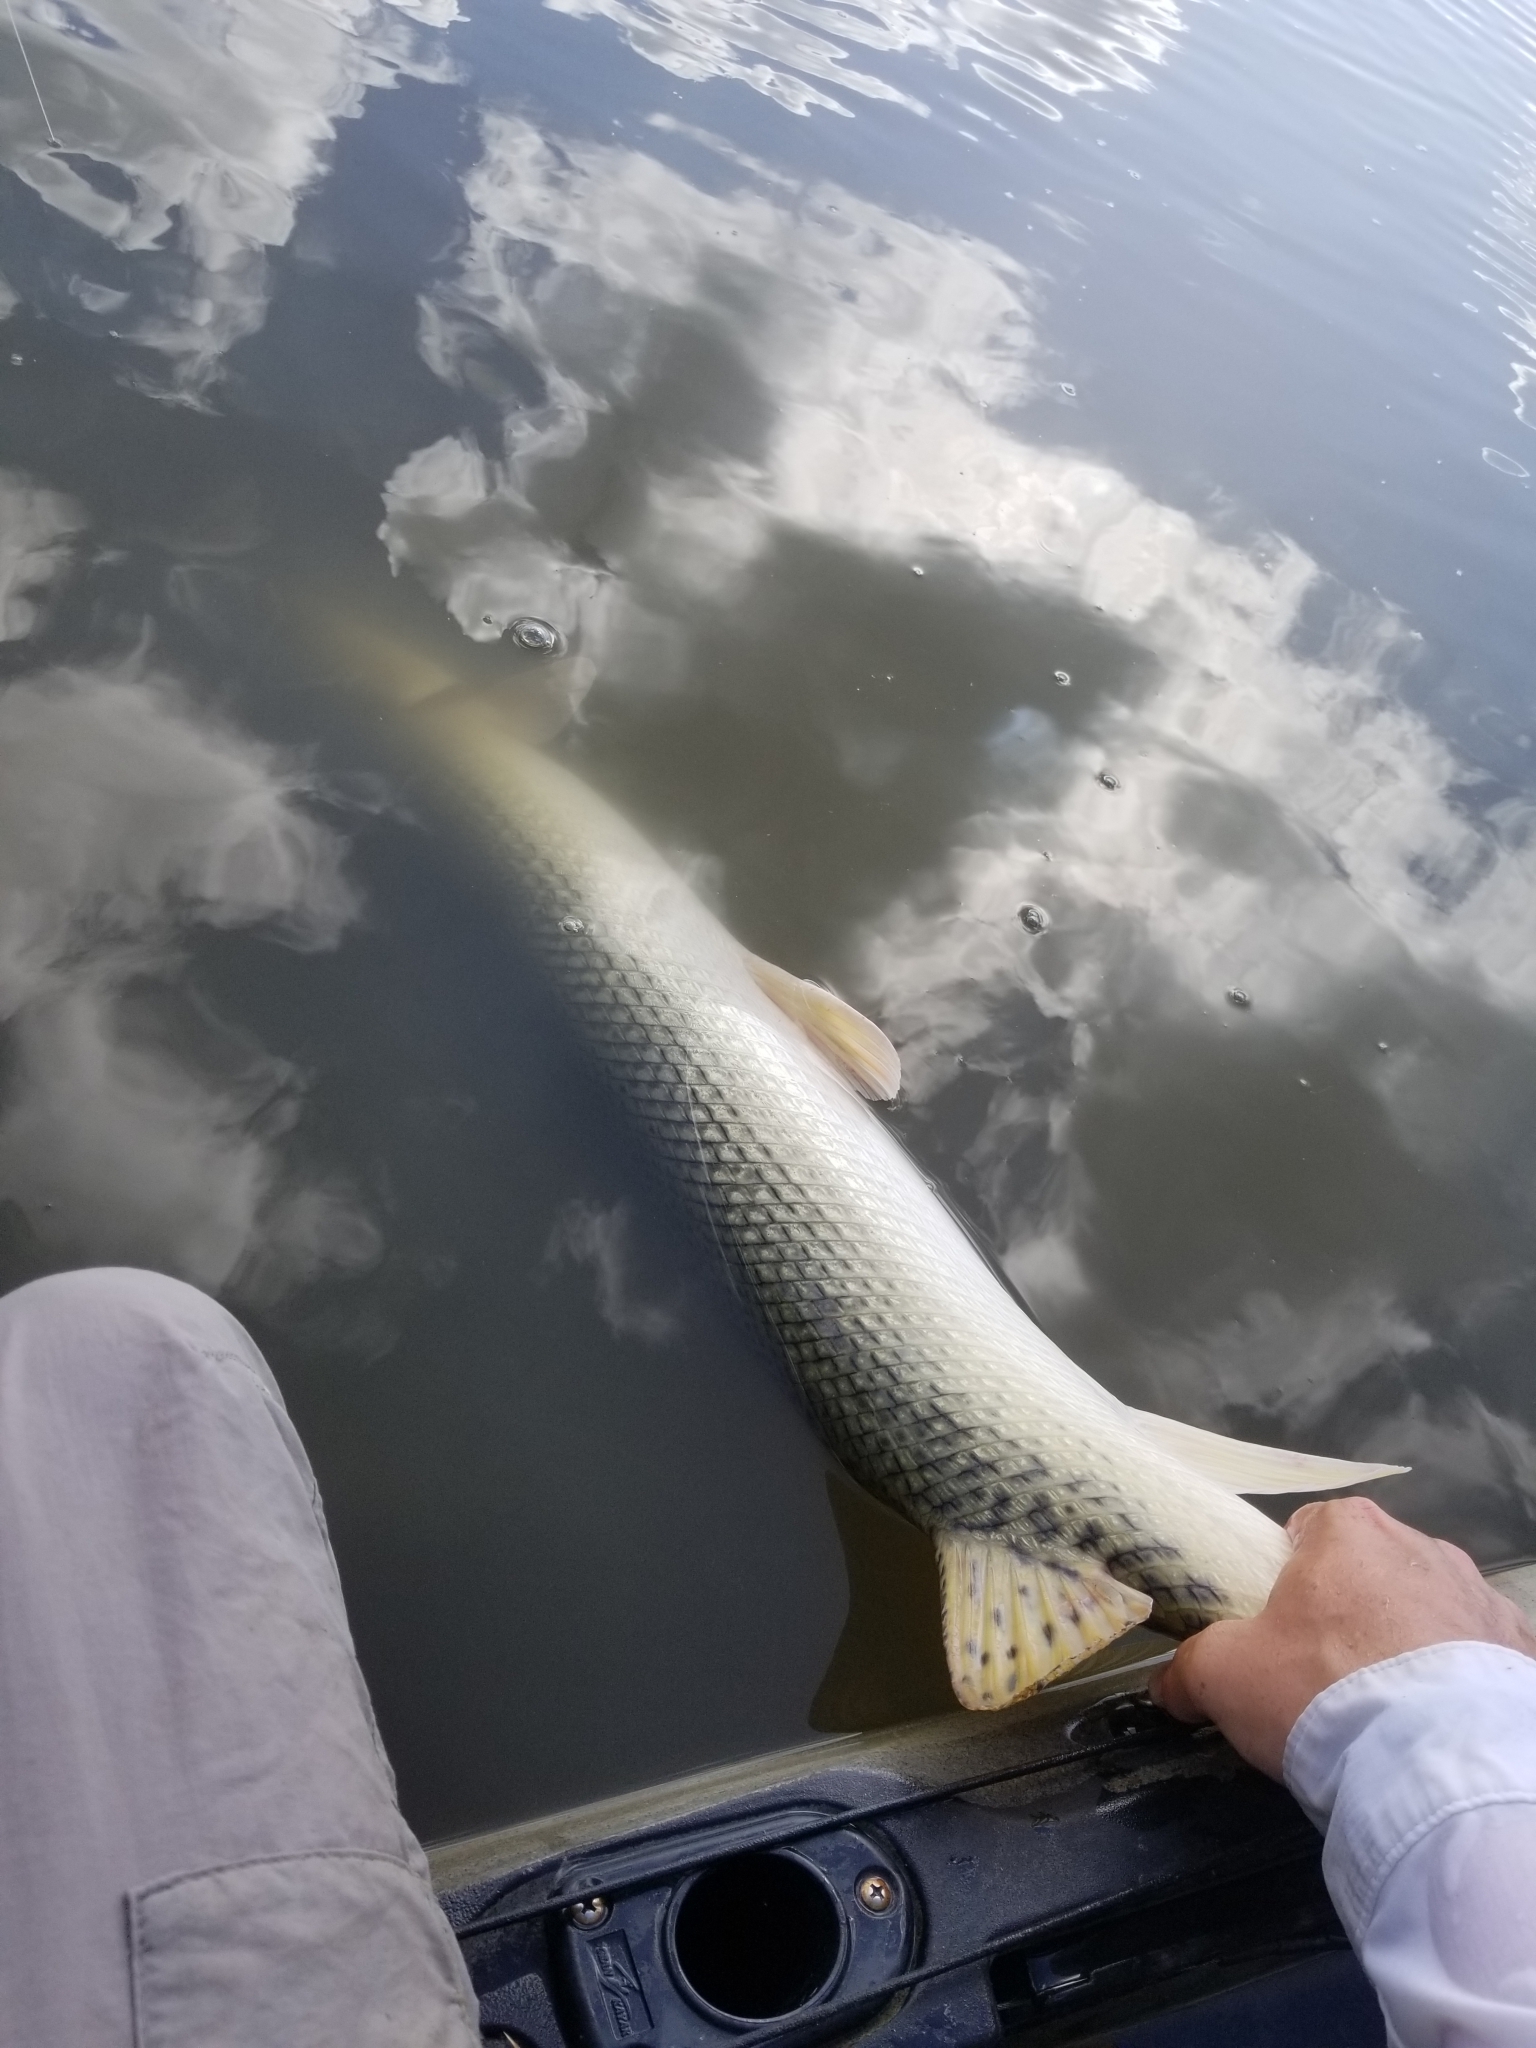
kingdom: Animalia
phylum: Chordata
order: Lepisosteiformes
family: Lepisosteidae
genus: Lepisosteus
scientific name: Lepisosteus osseus
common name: Longnose gar
